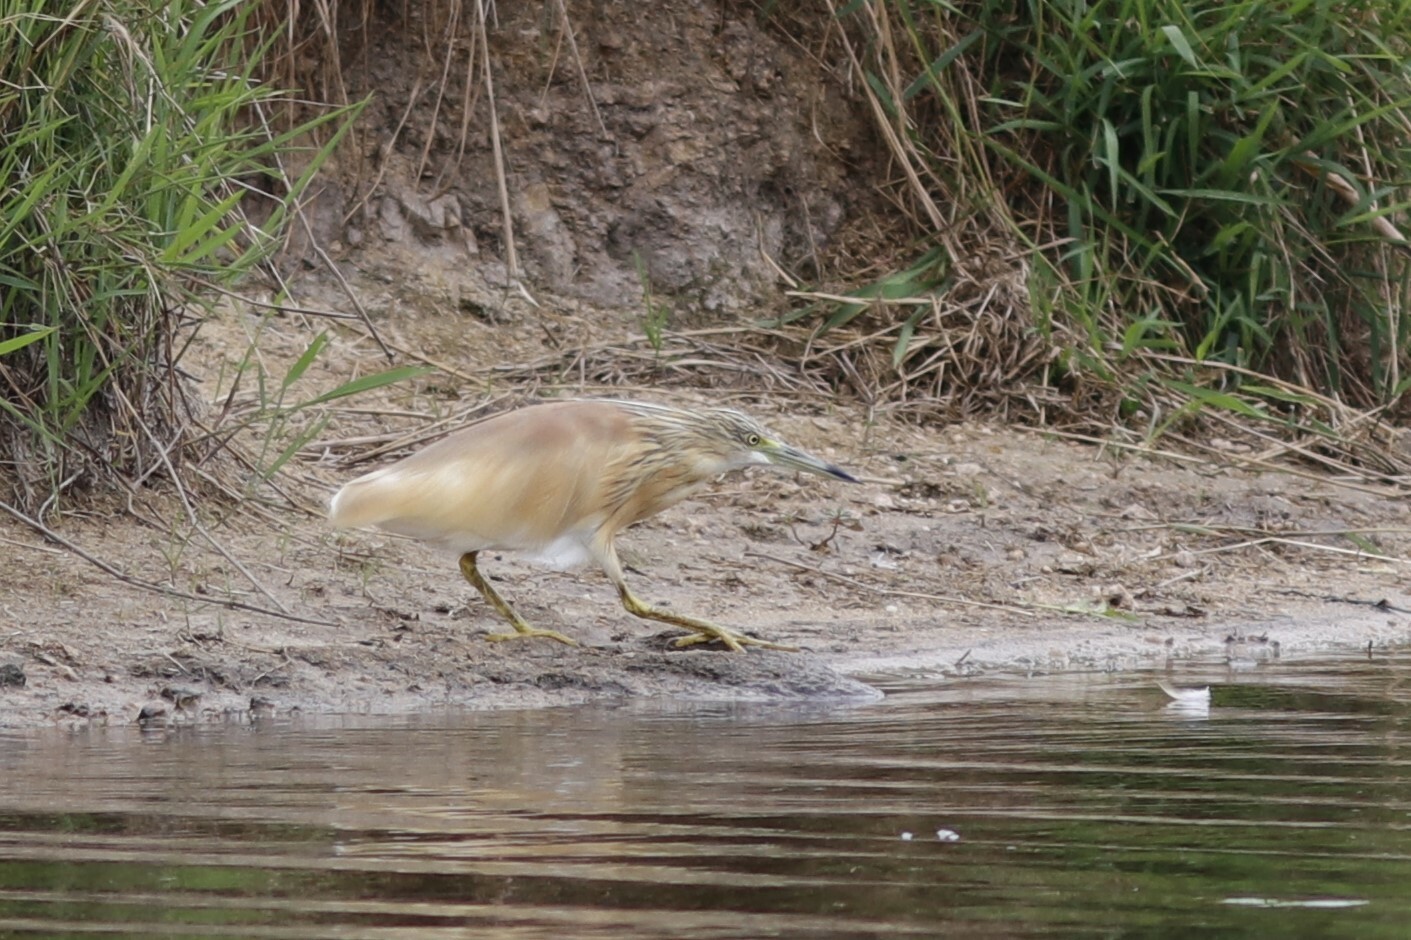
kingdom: Animalia
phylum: Chordata
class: Aves
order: Pelecaniformes
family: Ardeidae
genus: Ardeola
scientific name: Ardeola ralloides
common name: Squacco heron
